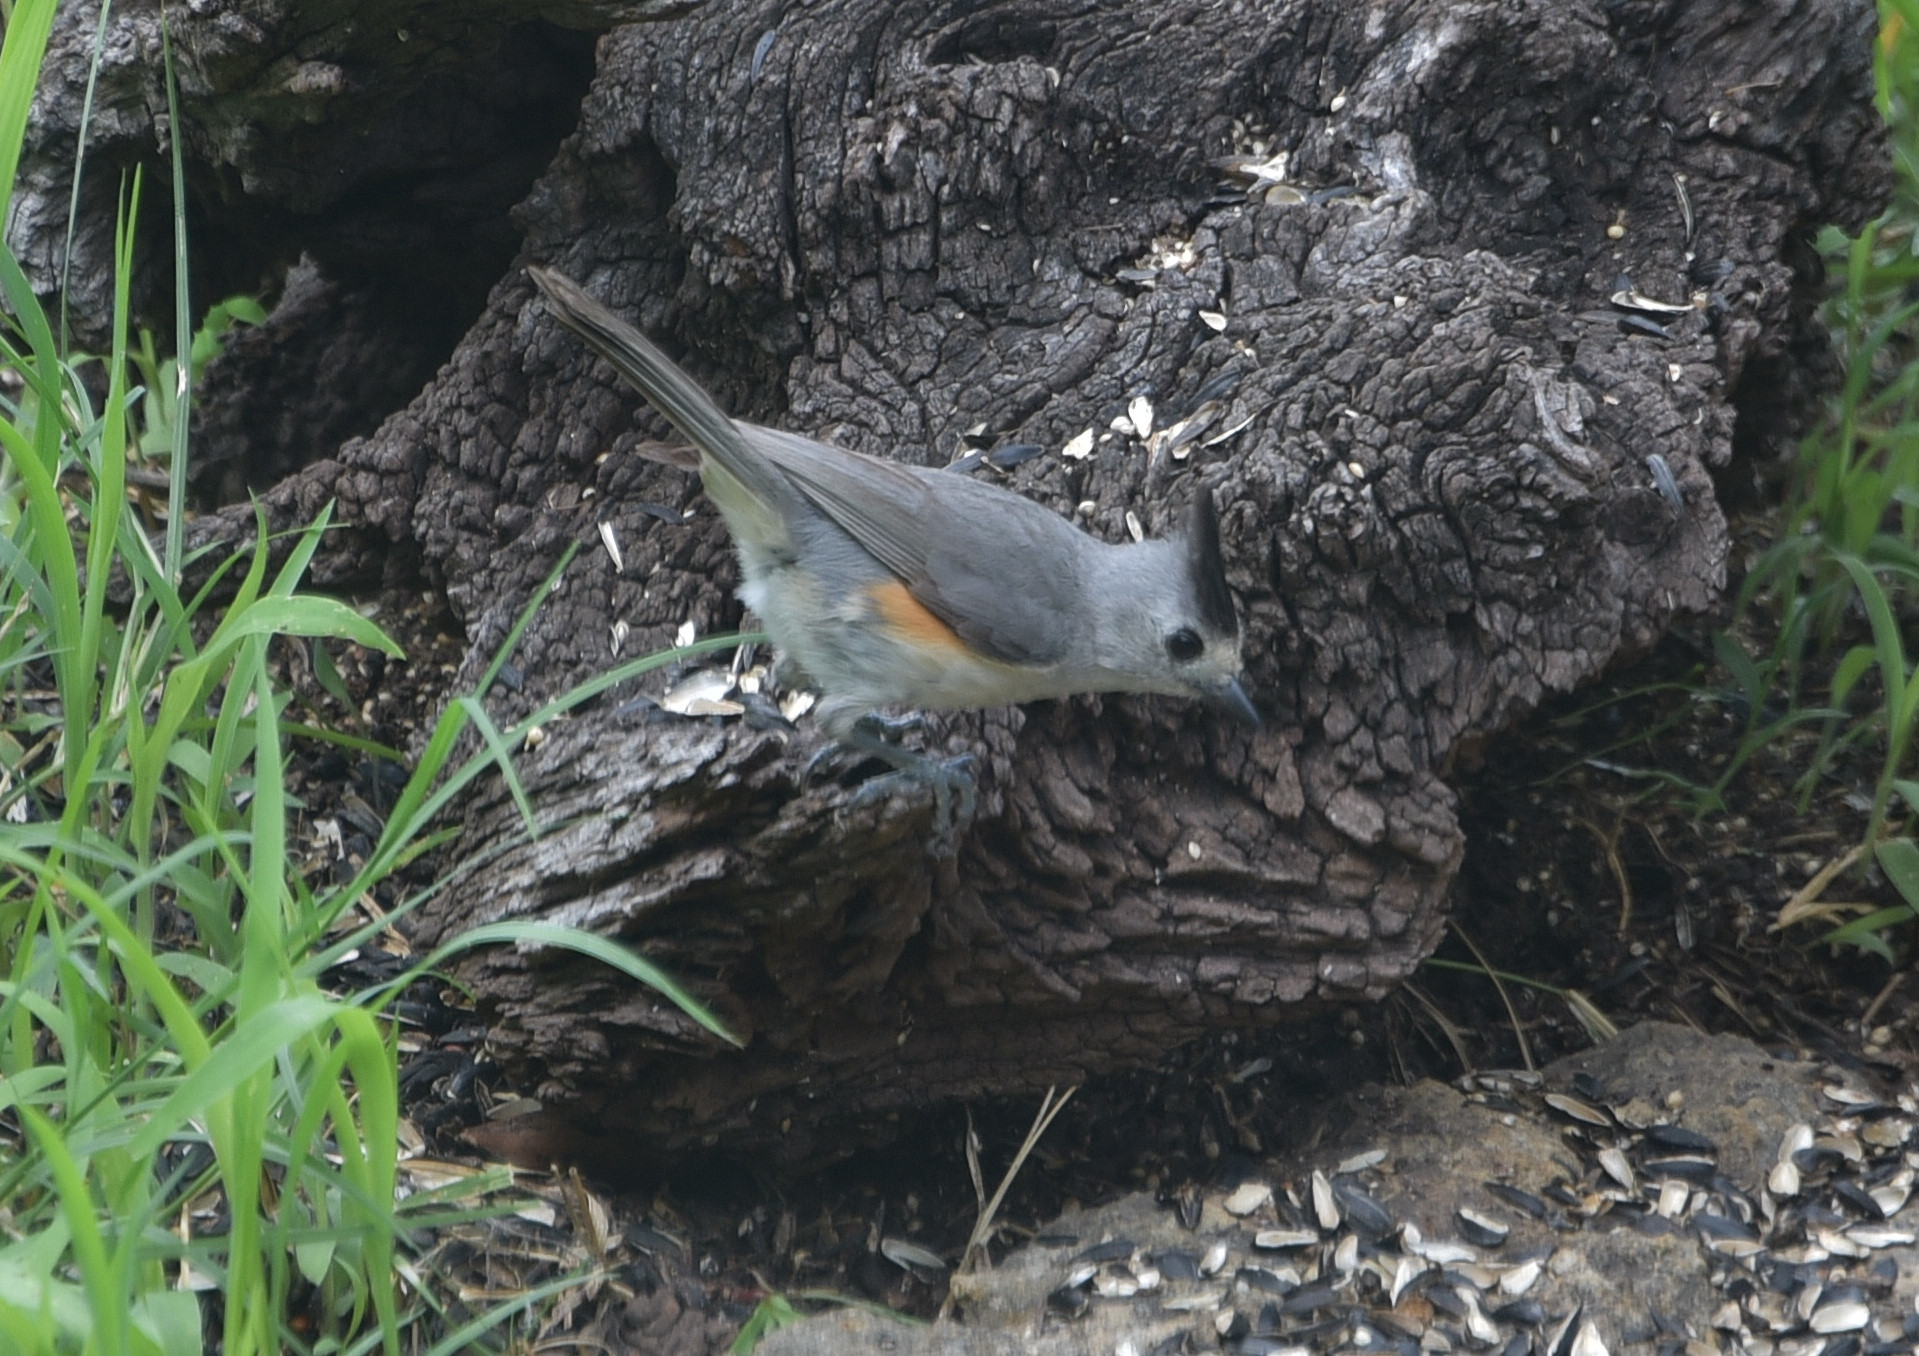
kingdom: Animalia
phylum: Chordata
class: Aves
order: Passeriformes
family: Paridae
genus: Baeolophus
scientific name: Baeolophus atricristatus
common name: Black-crested titmouse
